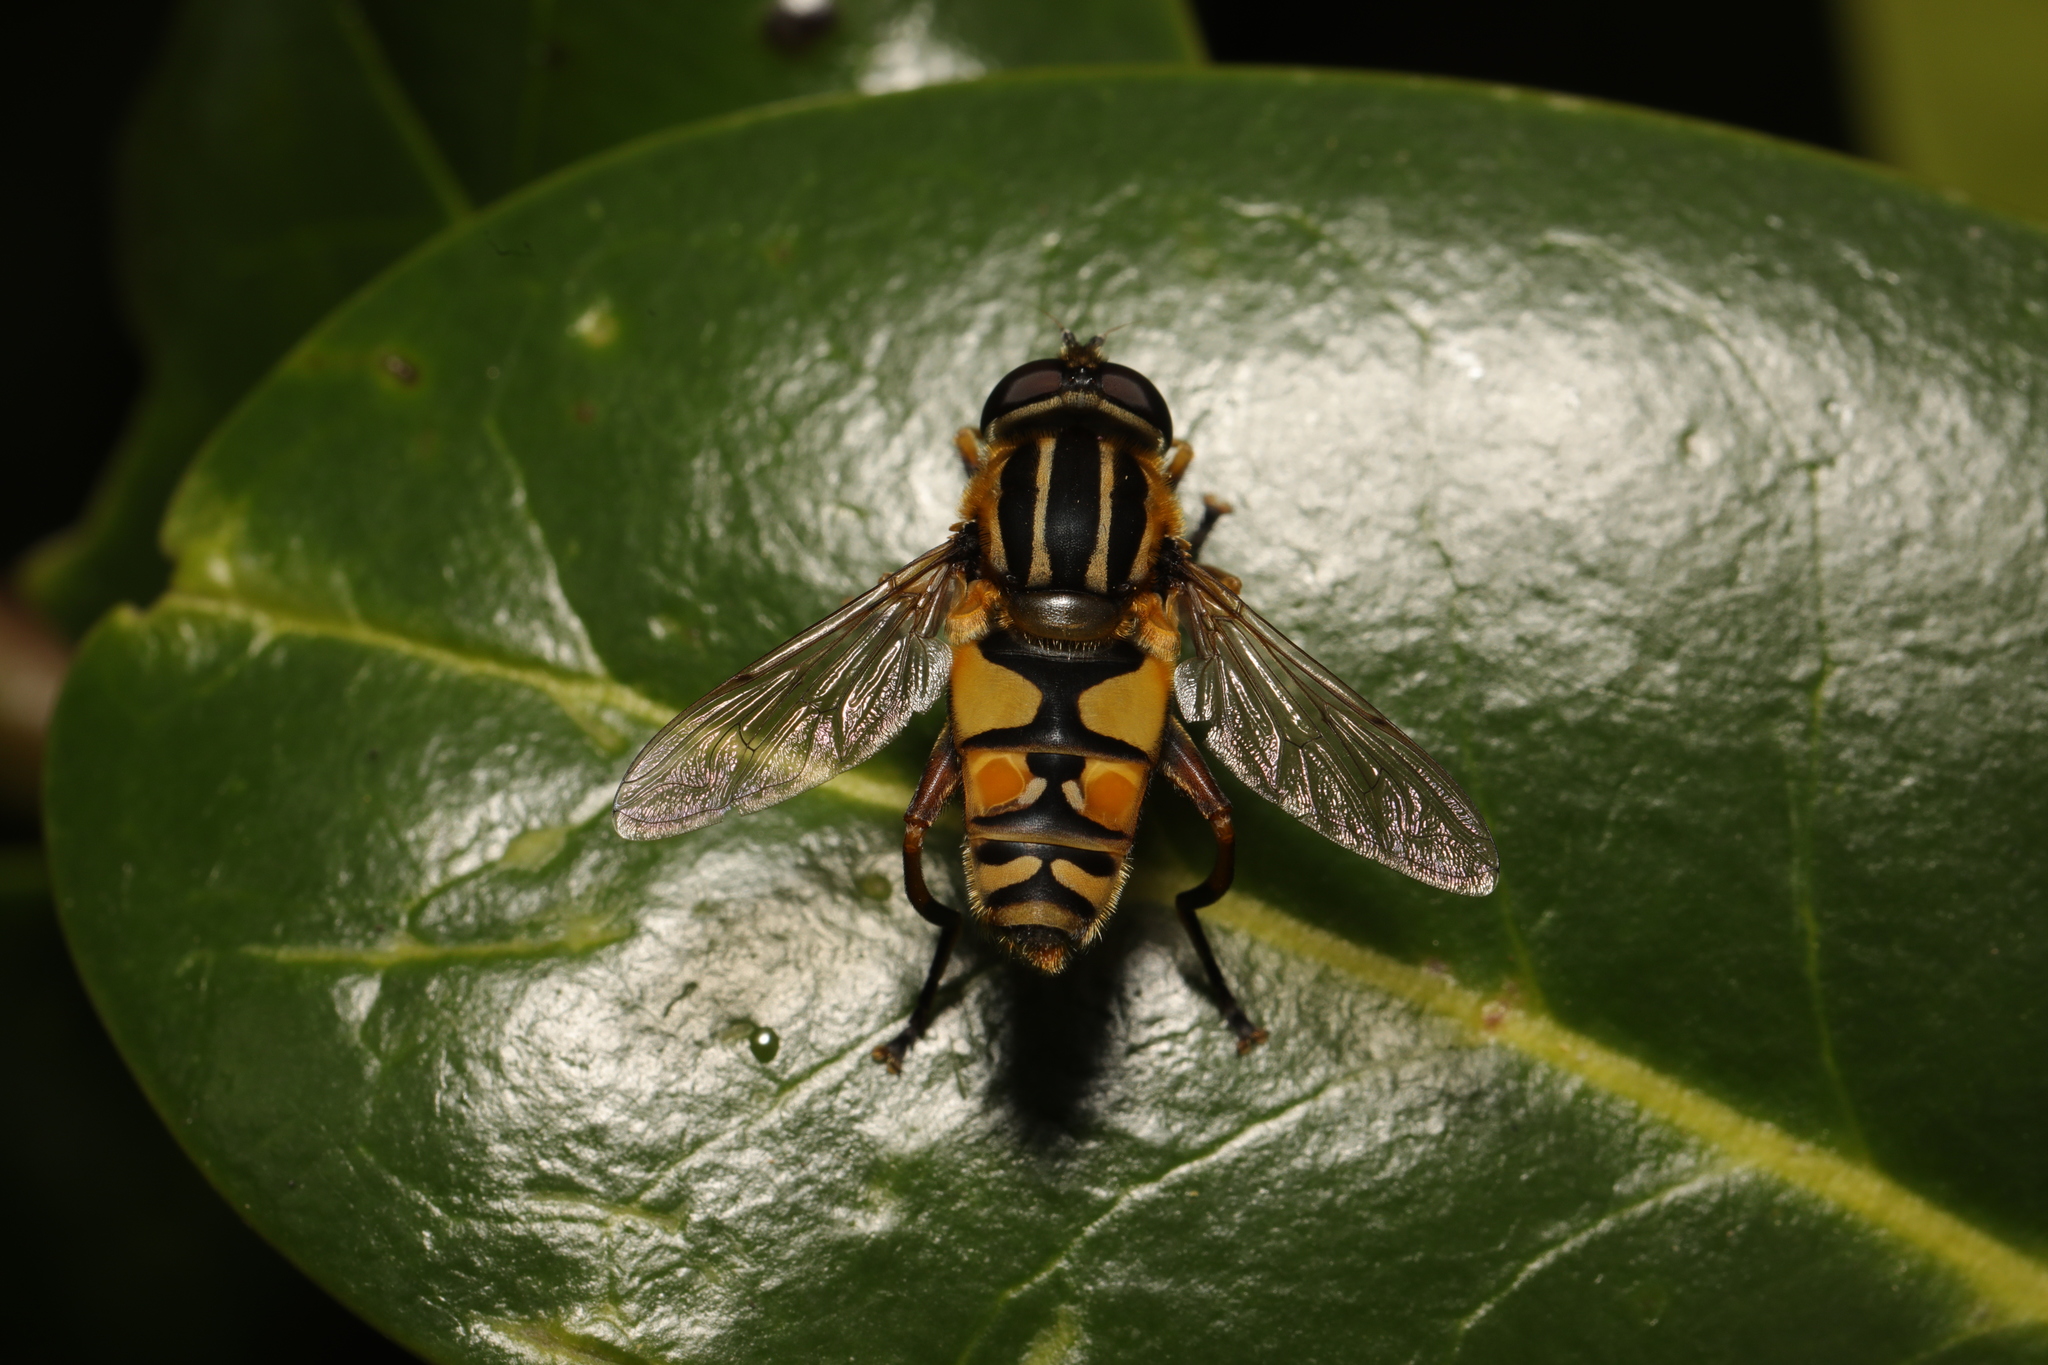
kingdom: Animalia
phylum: Arthropoda
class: Insecta
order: Diptera
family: Syrphidae
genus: Helophilus
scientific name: Helophilus pendulus
